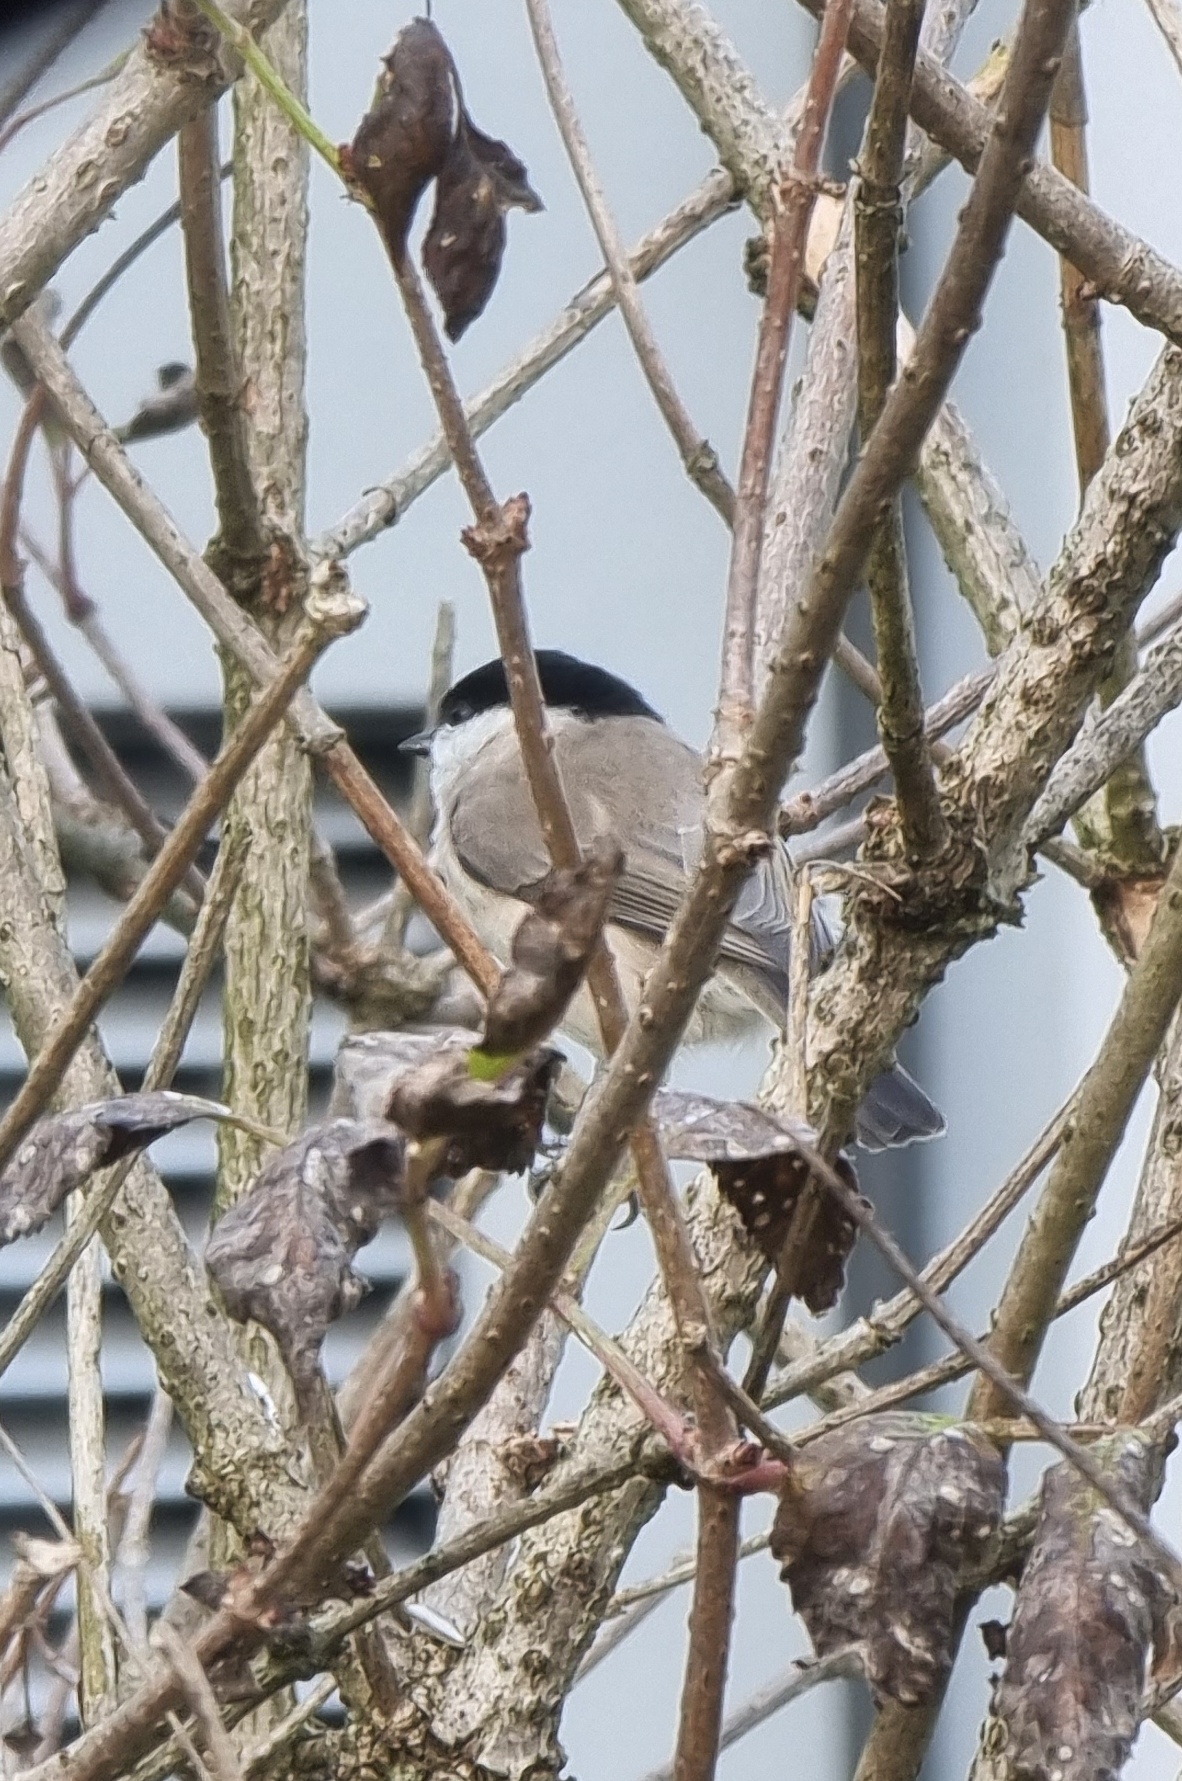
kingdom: Animalia
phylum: Chordata
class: Aves
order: Passeriformes
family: Paridae
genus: Poecile
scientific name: Poecile palustris
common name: Marsh tit
